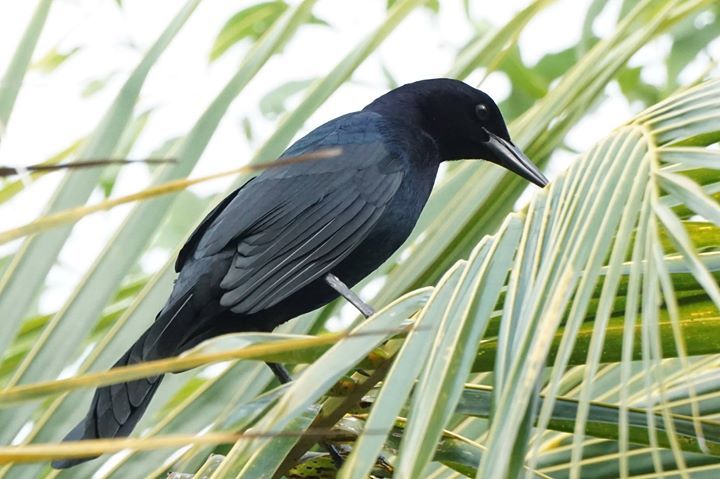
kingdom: Animalia
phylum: Chordata
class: Aves
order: Passeriformes
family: Icteridae
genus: Quiscalus
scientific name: Quiscalus major
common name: Boat-tailed grackle
